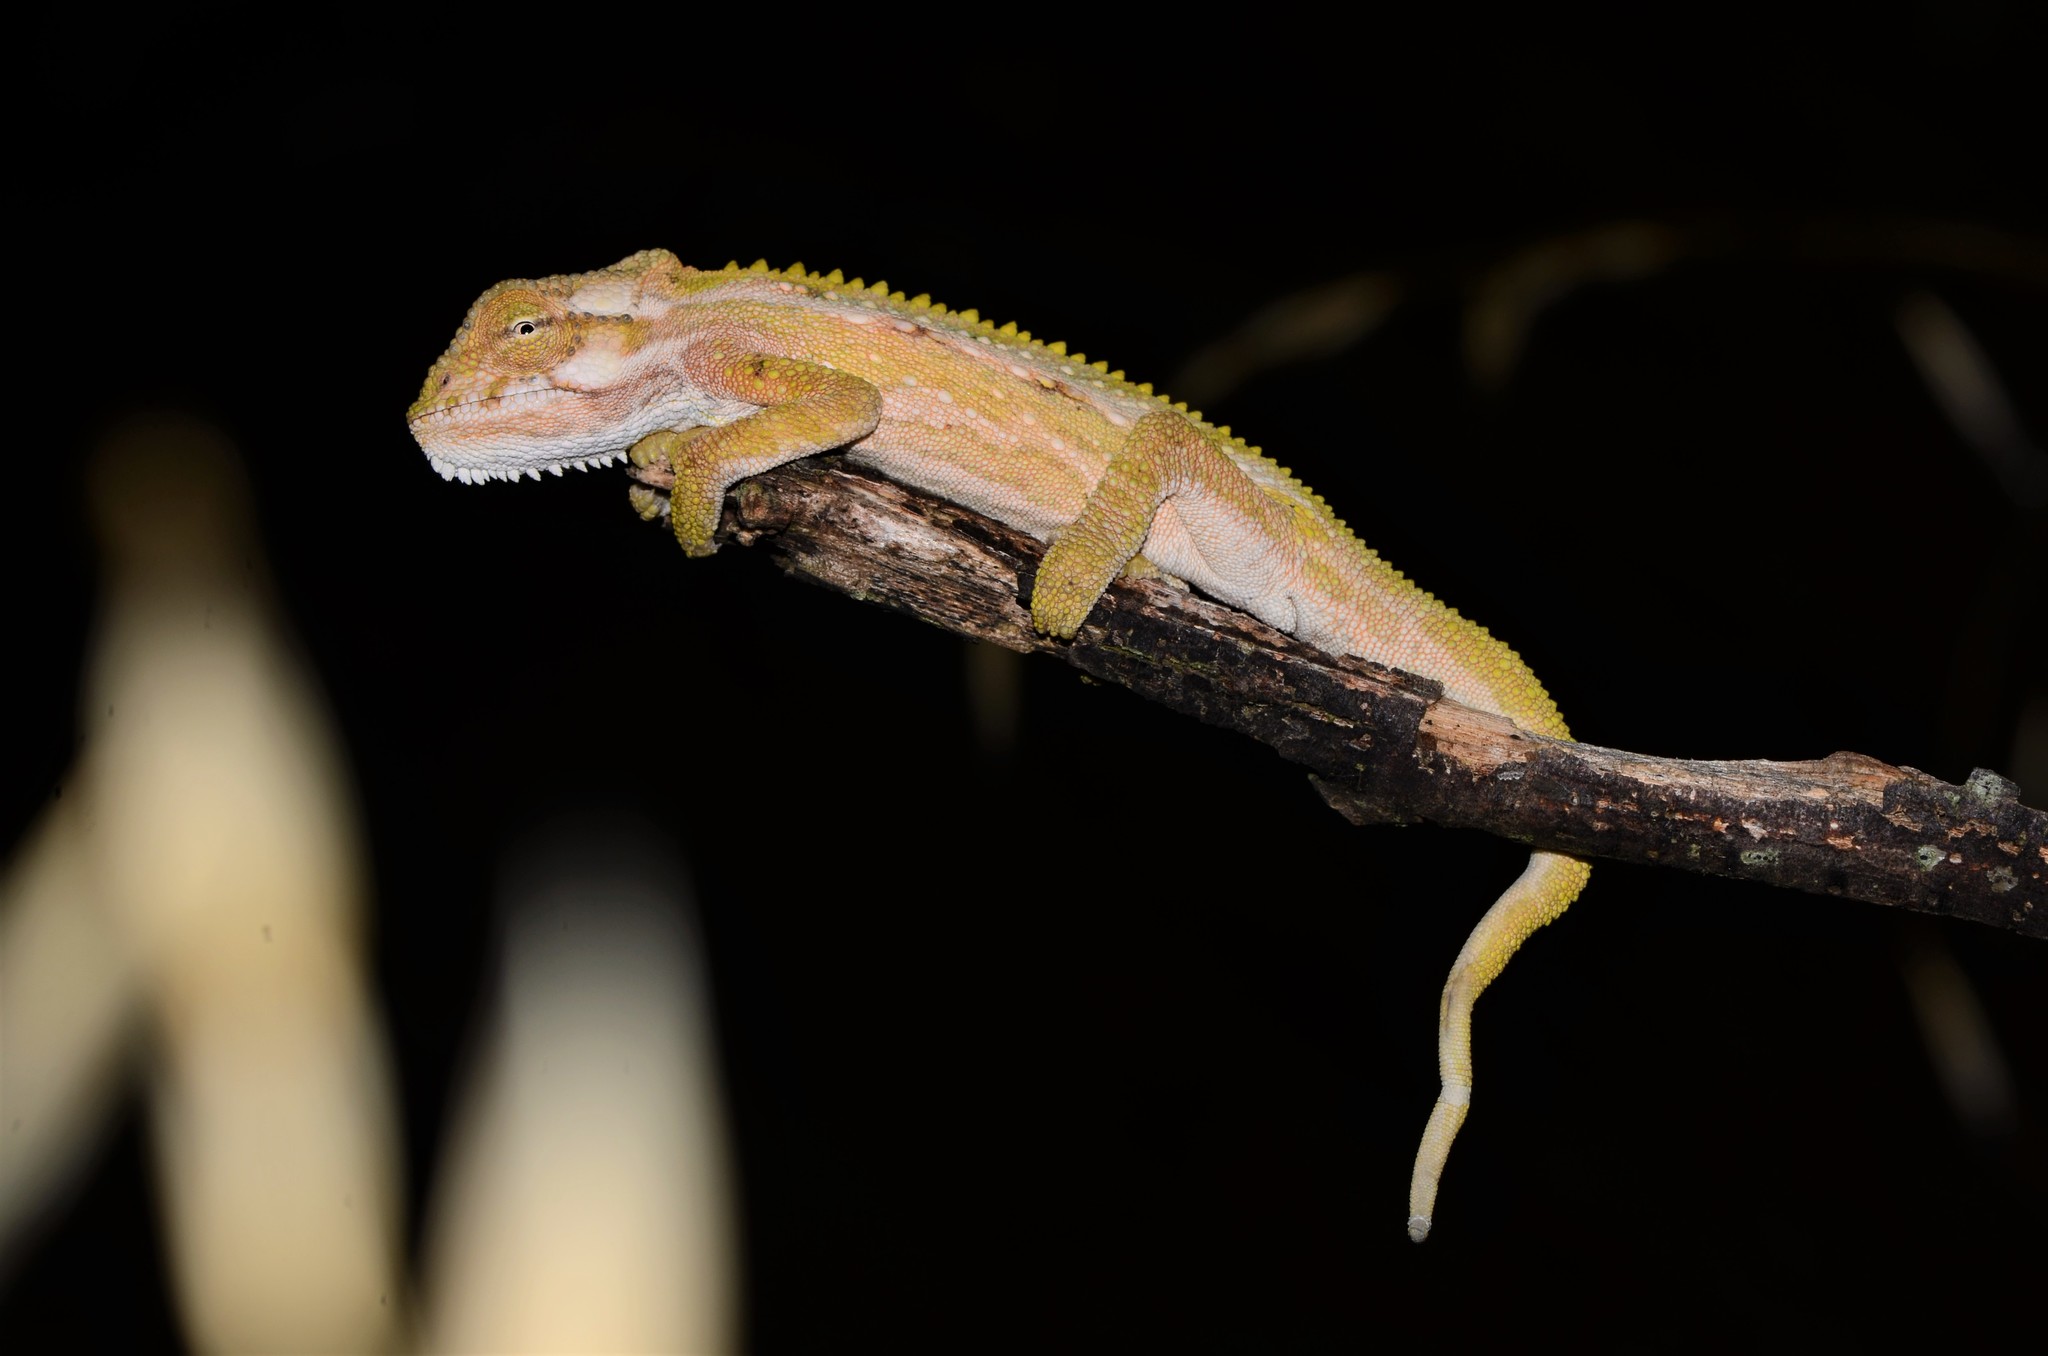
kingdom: Animalia
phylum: Chordata
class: Squamata
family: Chamaeleonidae
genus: Bradypodion
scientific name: Bradypodion pumilum
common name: Cape dwarf chameleon
